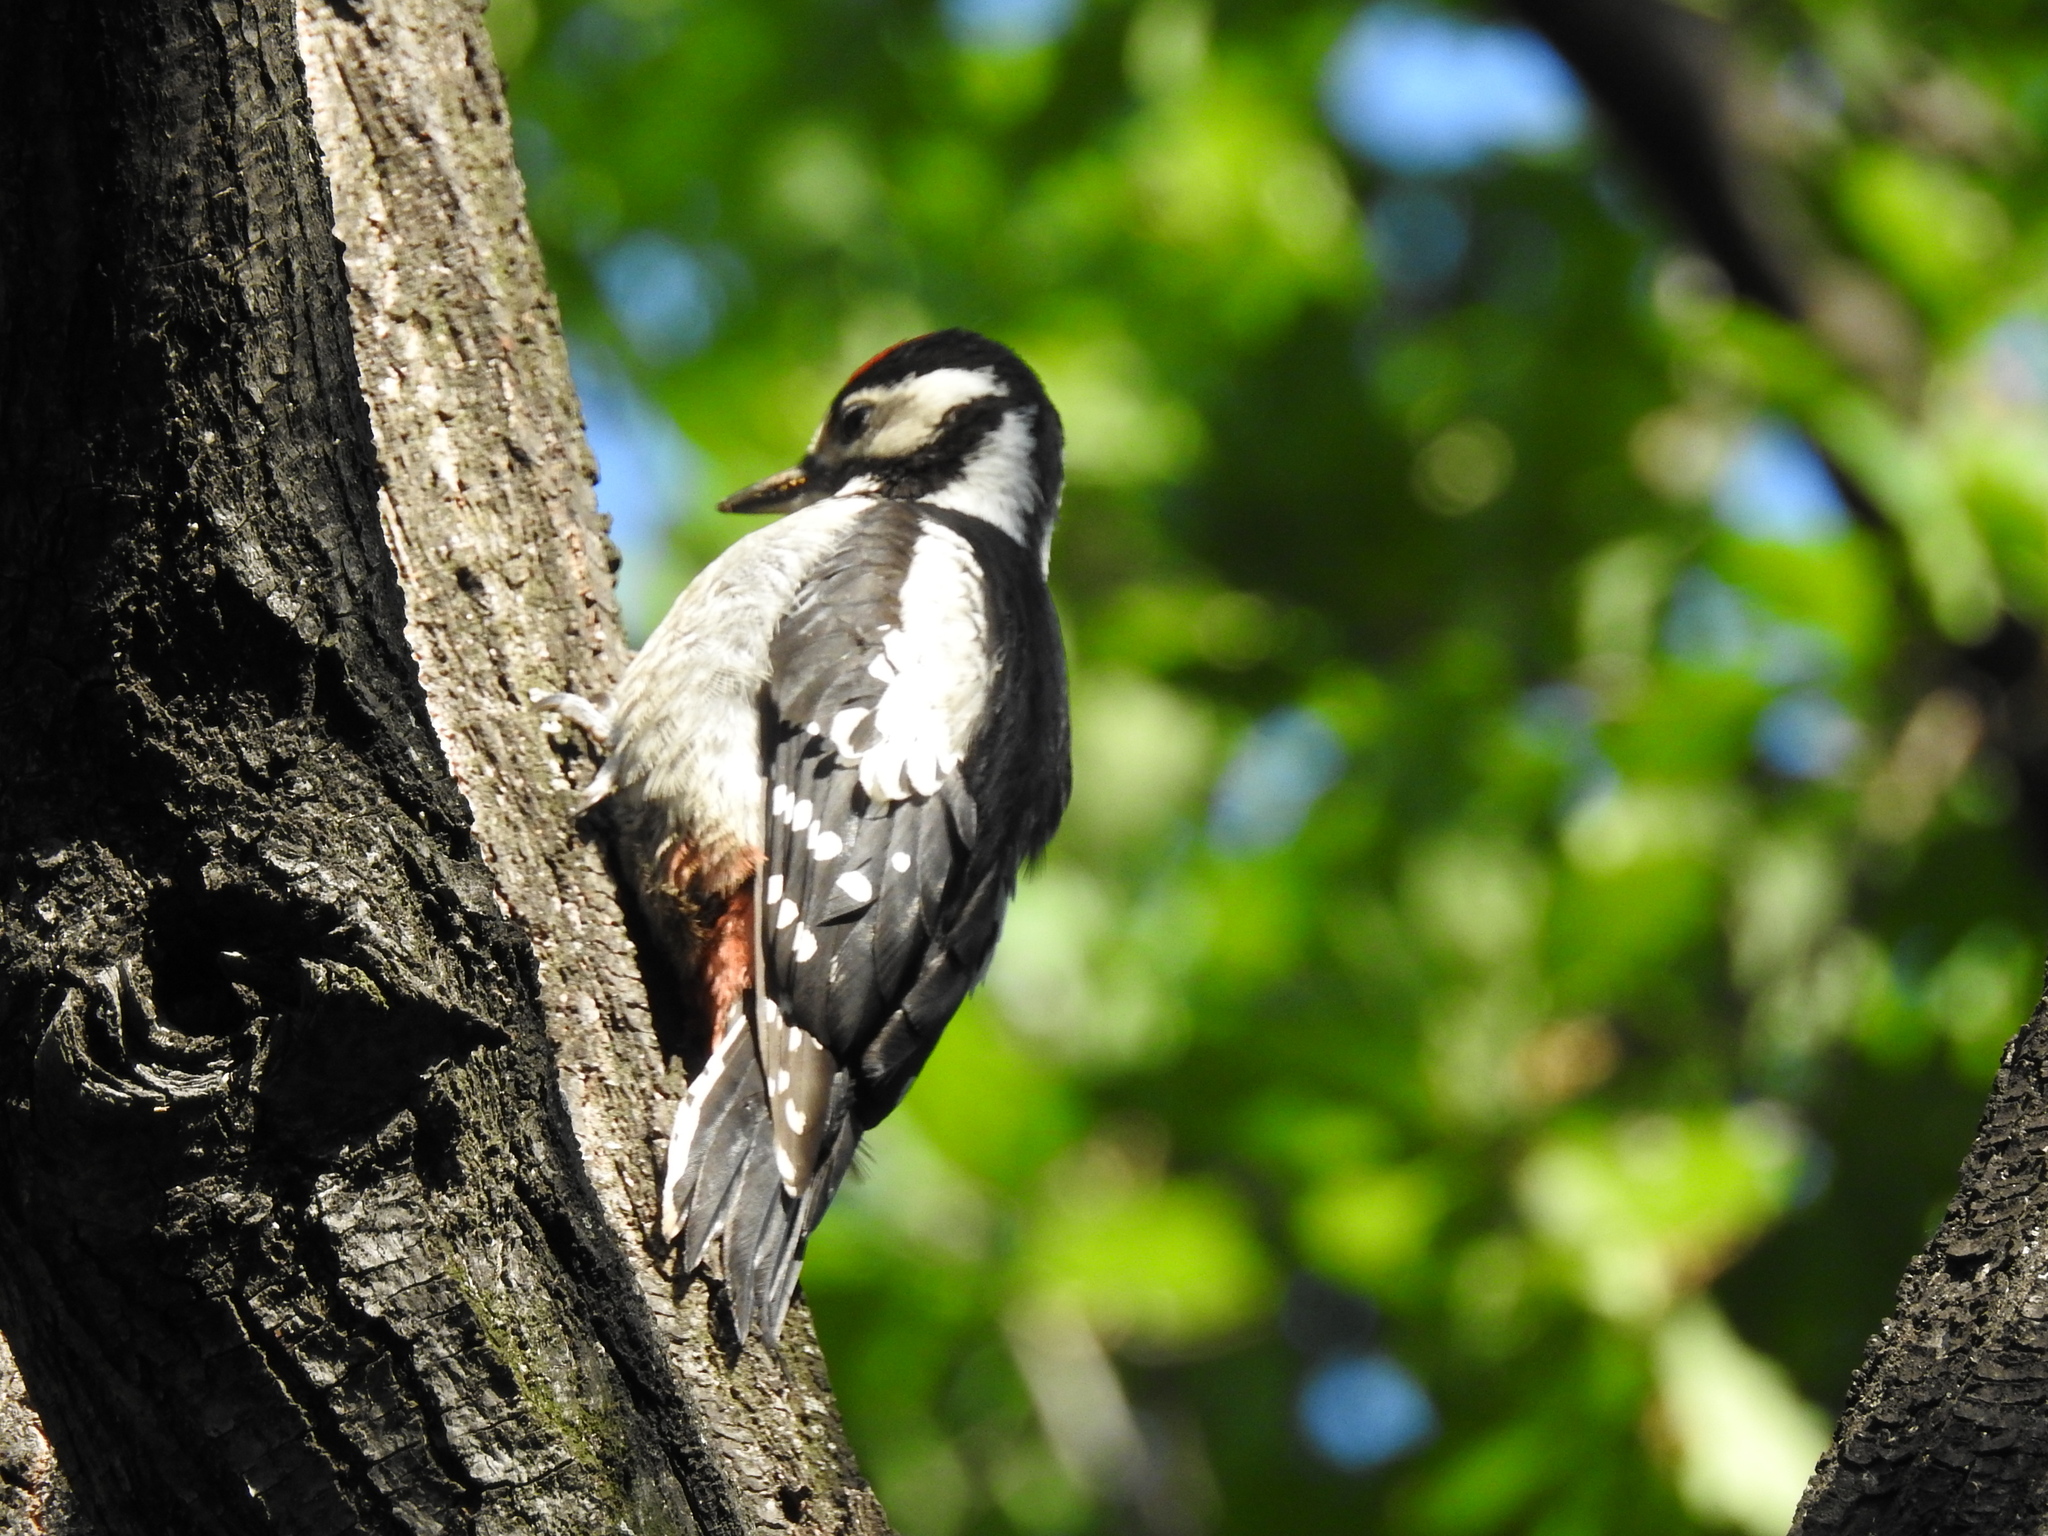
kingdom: Animalia
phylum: Chordata
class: Aves
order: Piciformes
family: Picidae
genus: Dendrocopos
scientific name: Dendrocopos major
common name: Great spotted woodpecker
